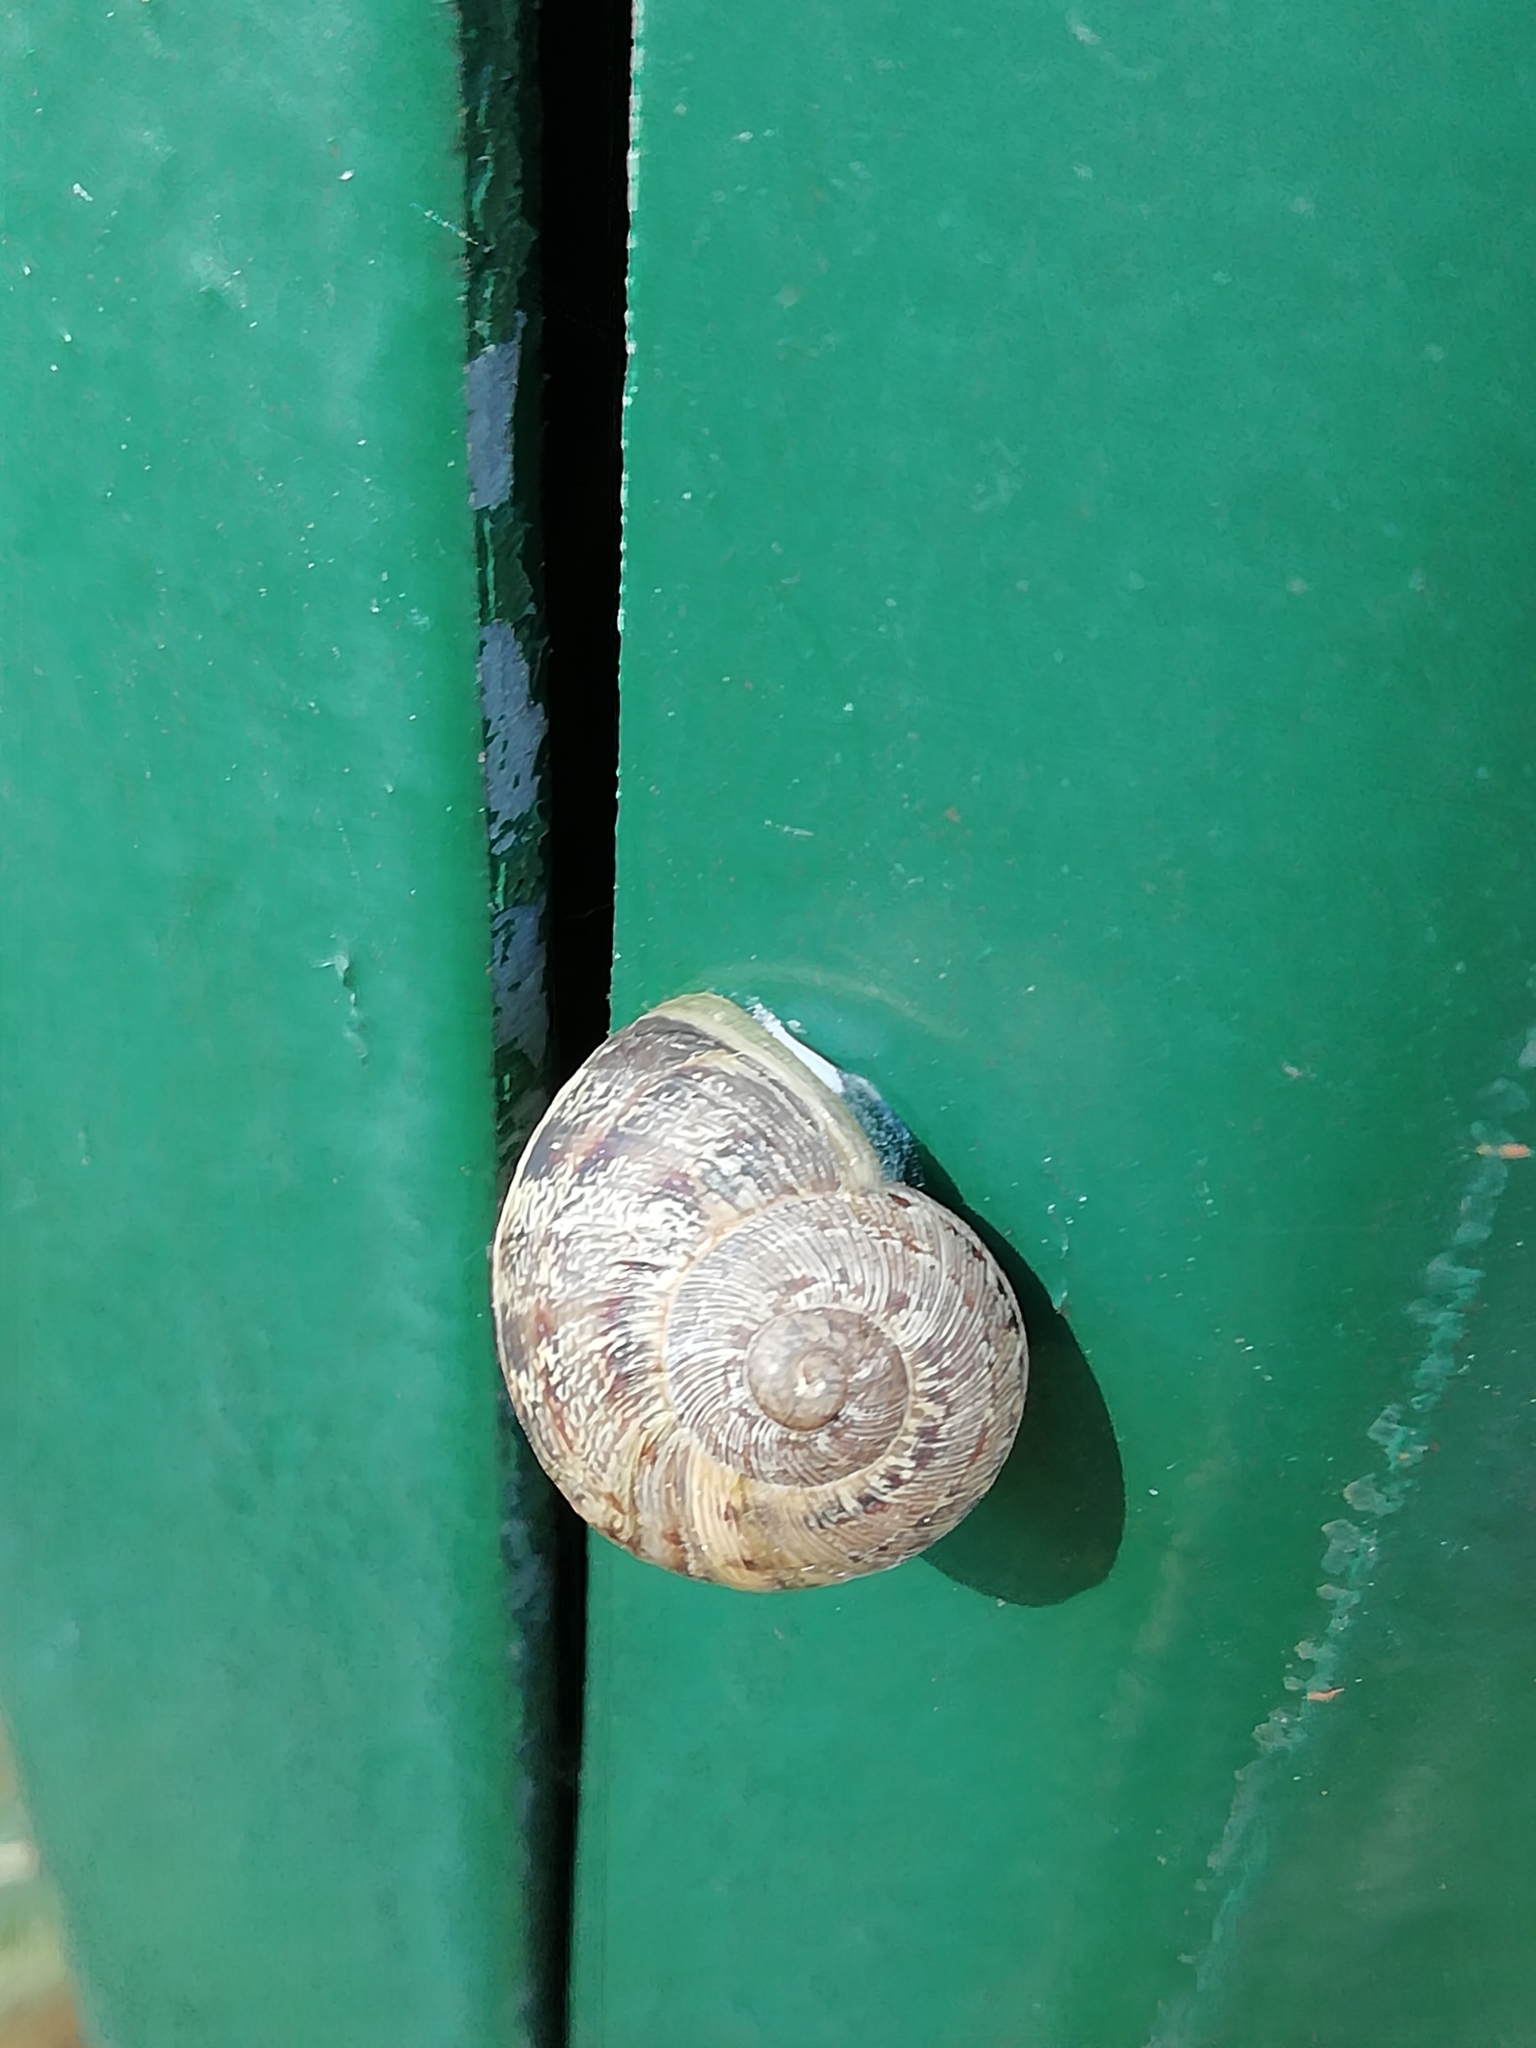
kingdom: Animalia
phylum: Mollusca
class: Gastropoda
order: Stylommatophora
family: Helicidae
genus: Cornu
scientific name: Cornu aspersum
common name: Brown garden snail
